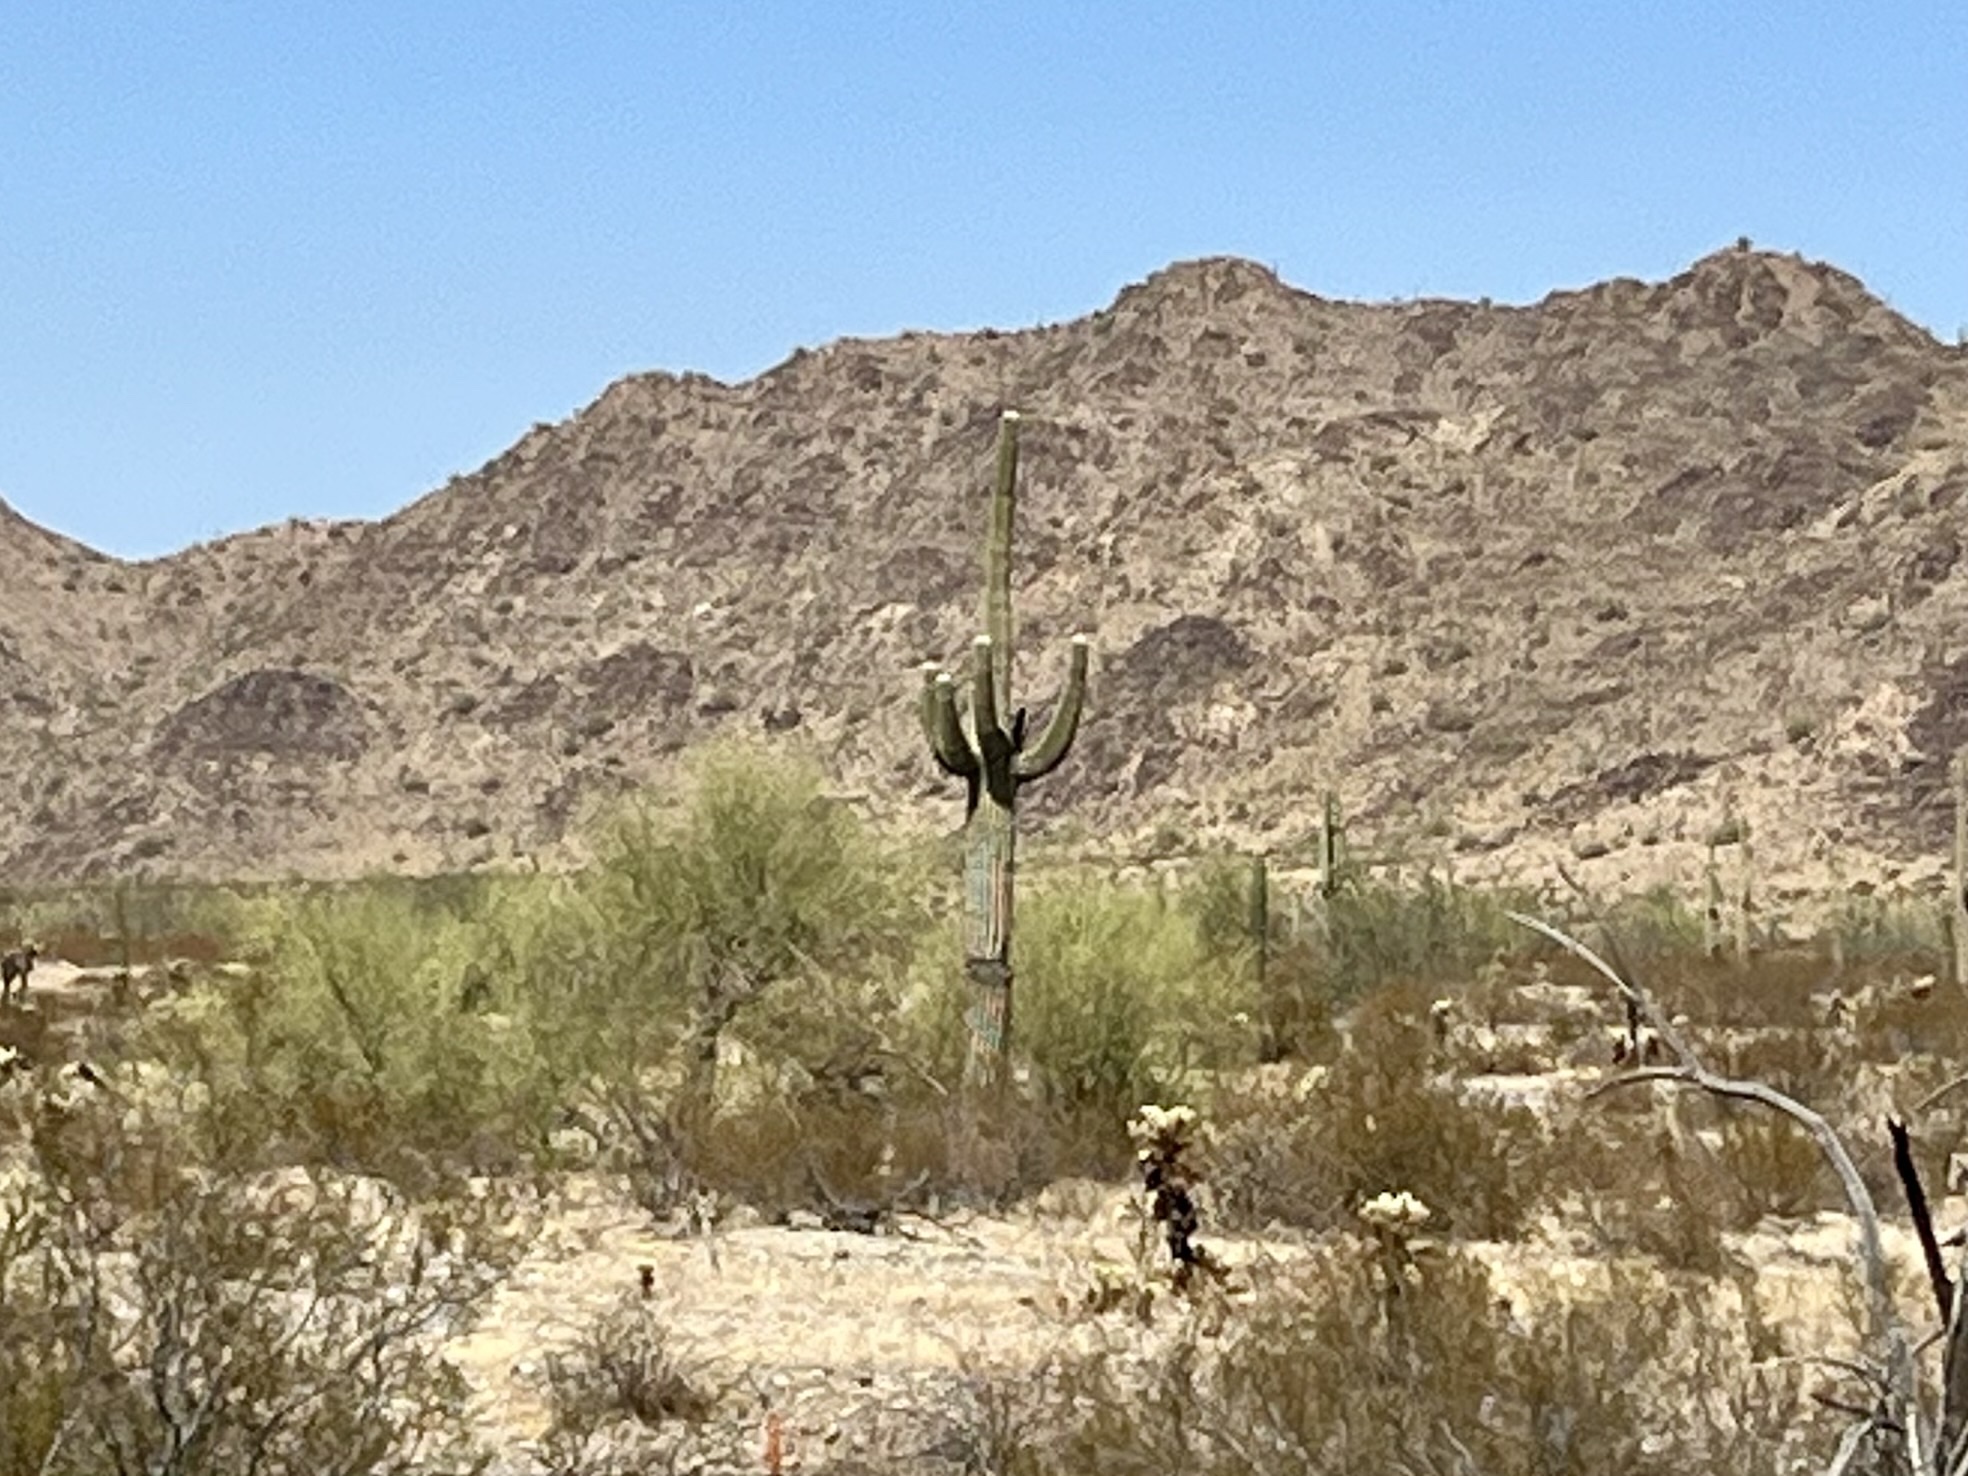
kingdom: Plantae
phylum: Tracheophyta
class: Magnoliopsida
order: Caryophyllales
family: Cactaceae
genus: Carnegiea
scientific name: Carnegiea gigantea
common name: Saguaro
